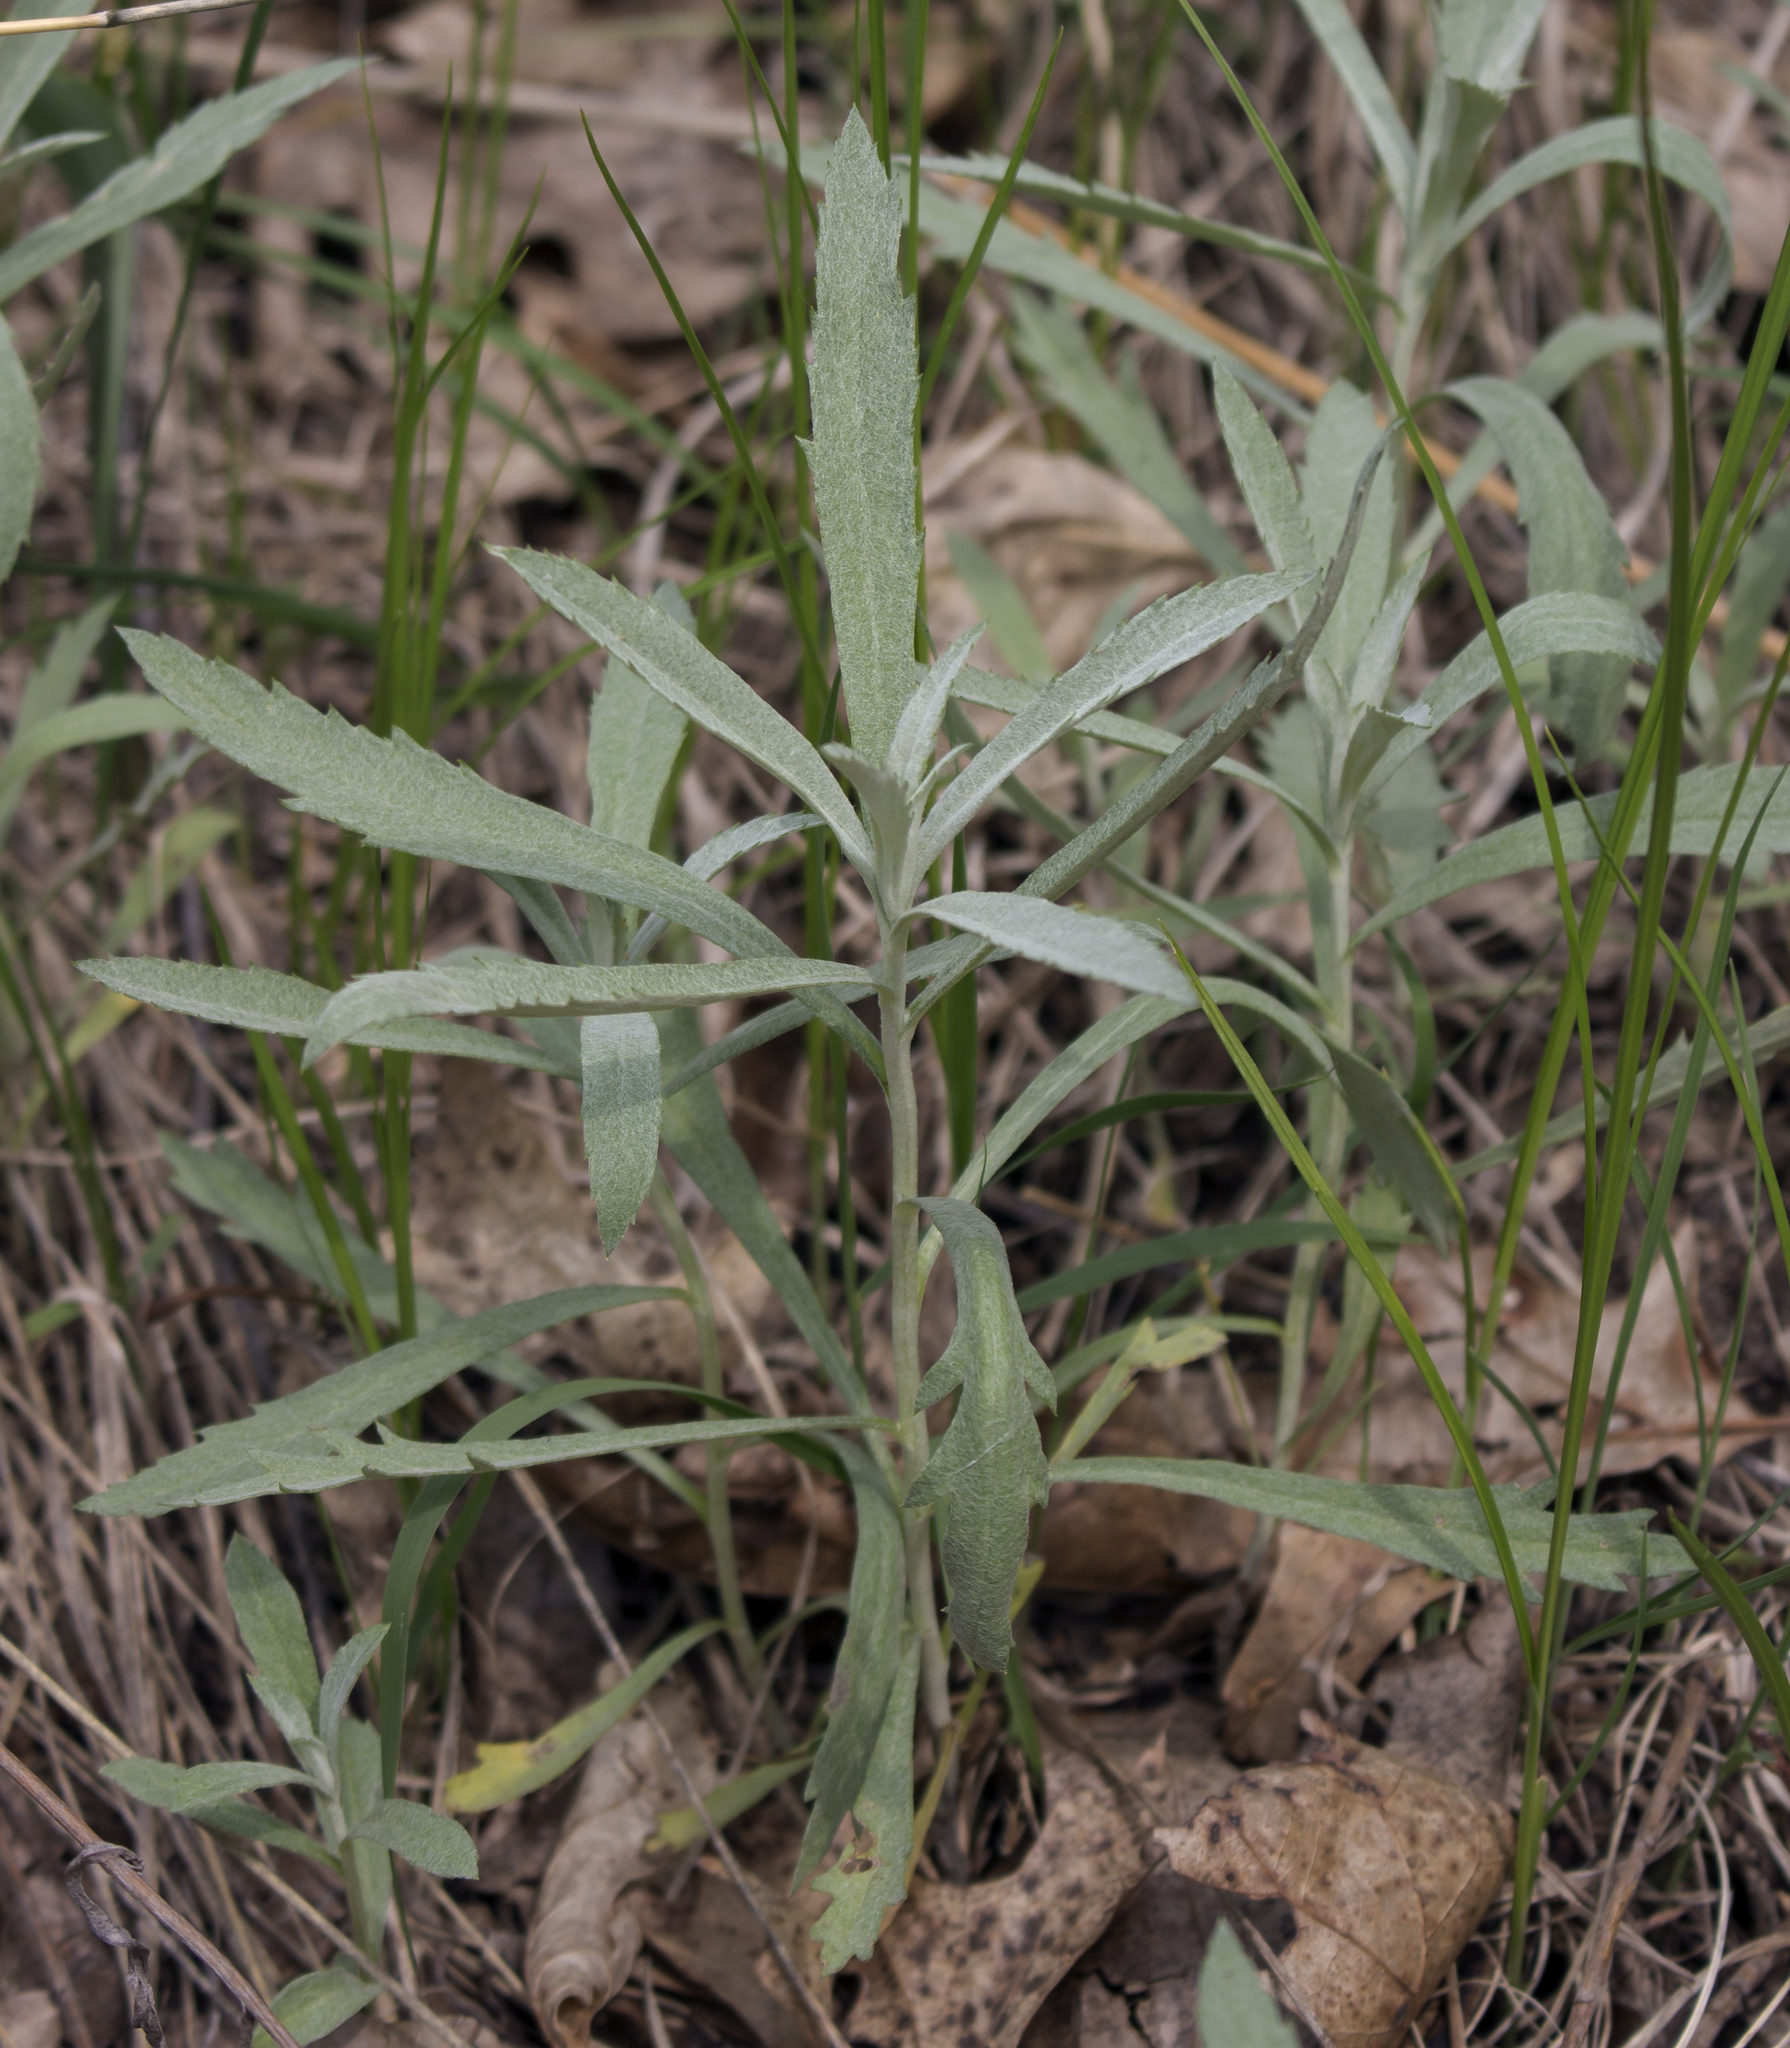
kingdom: Plantae
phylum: Tracheophyta
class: Magnoliopsida
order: Asterales
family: Asteraceae
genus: Artemisia
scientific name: Artemisia ludoviciana
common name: Western mugwort
